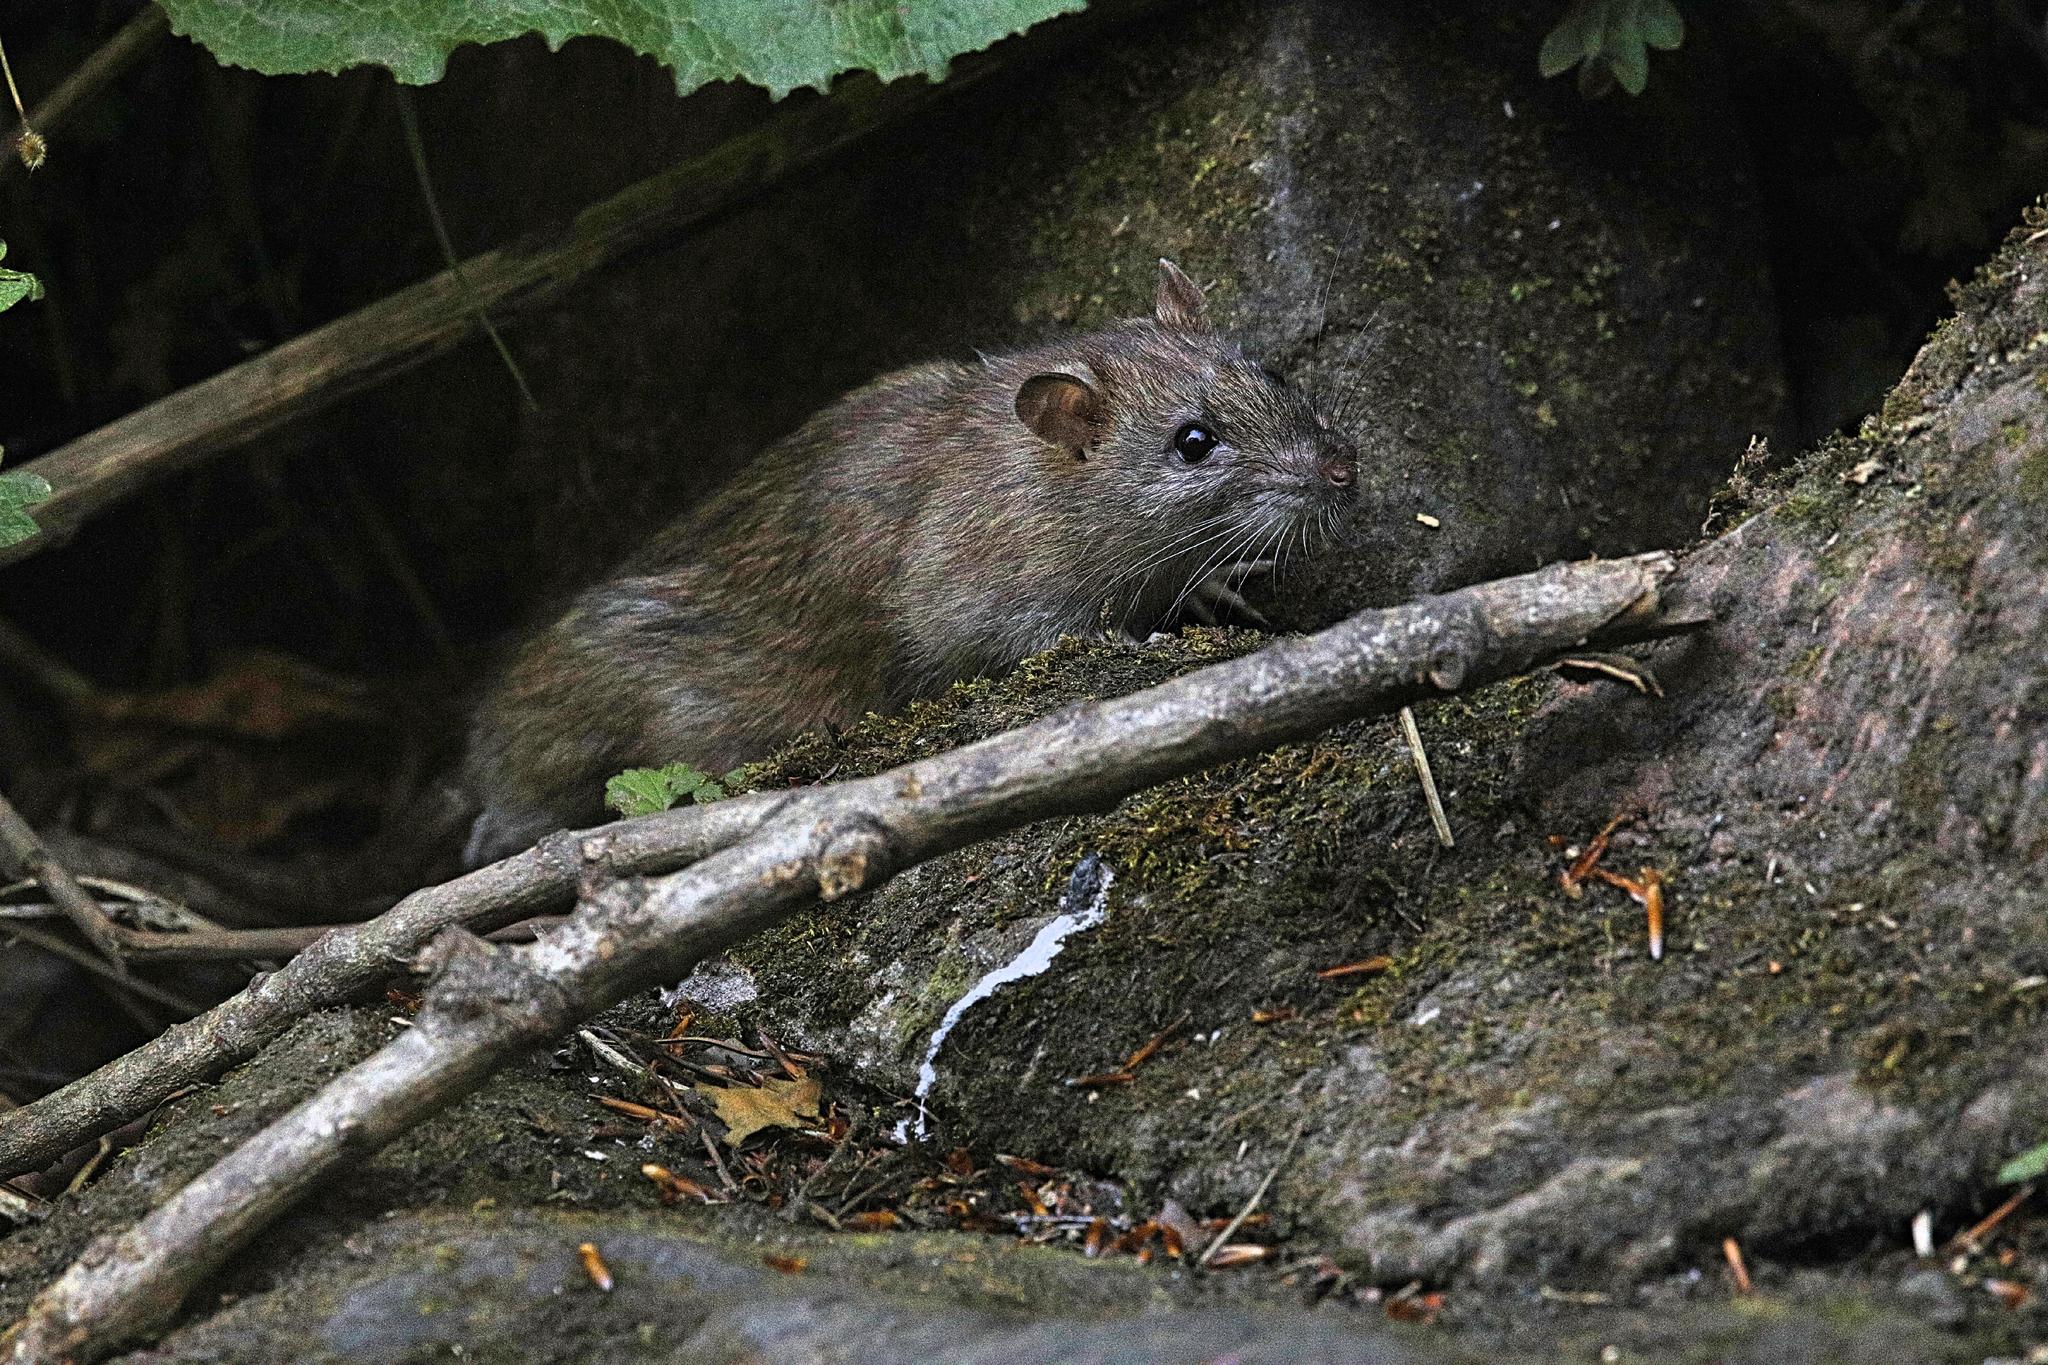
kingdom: Animalia
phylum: Chordata
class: Mammalia
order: Rodentia
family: Muridae
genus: Rattus
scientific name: Rattus norvegicus
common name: Brown rat
